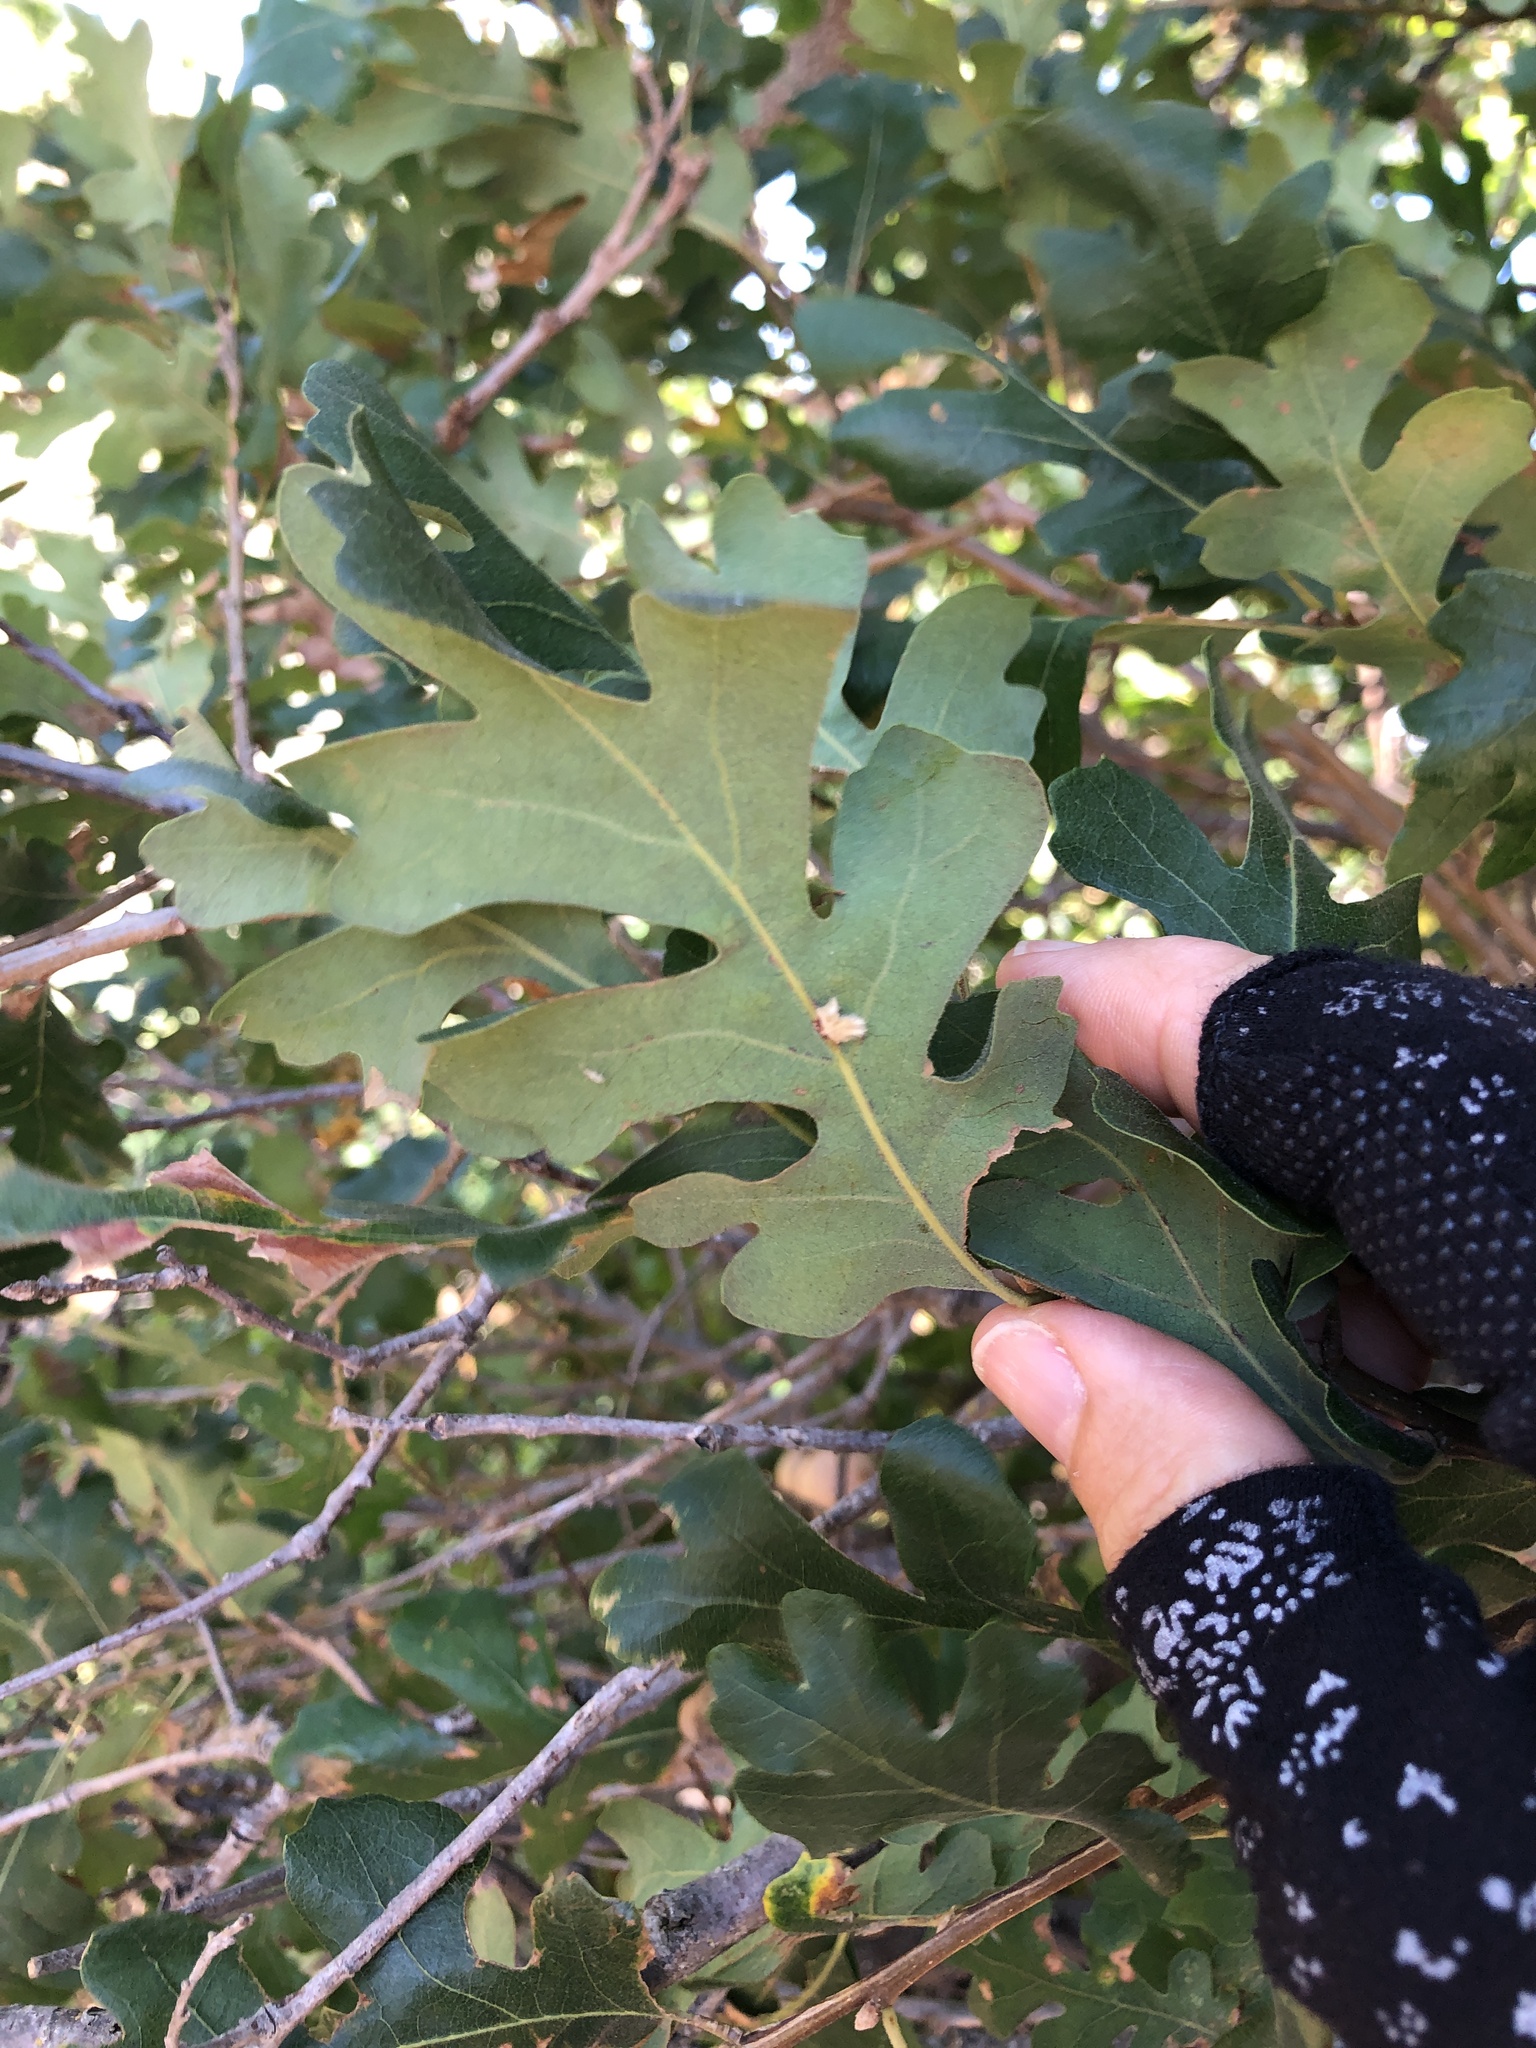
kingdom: Animalia
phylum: Arthropoda
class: Insecta
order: Hymenoptera
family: Cynipidae
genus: Andricus
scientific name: Andricus Druon fullawayi
